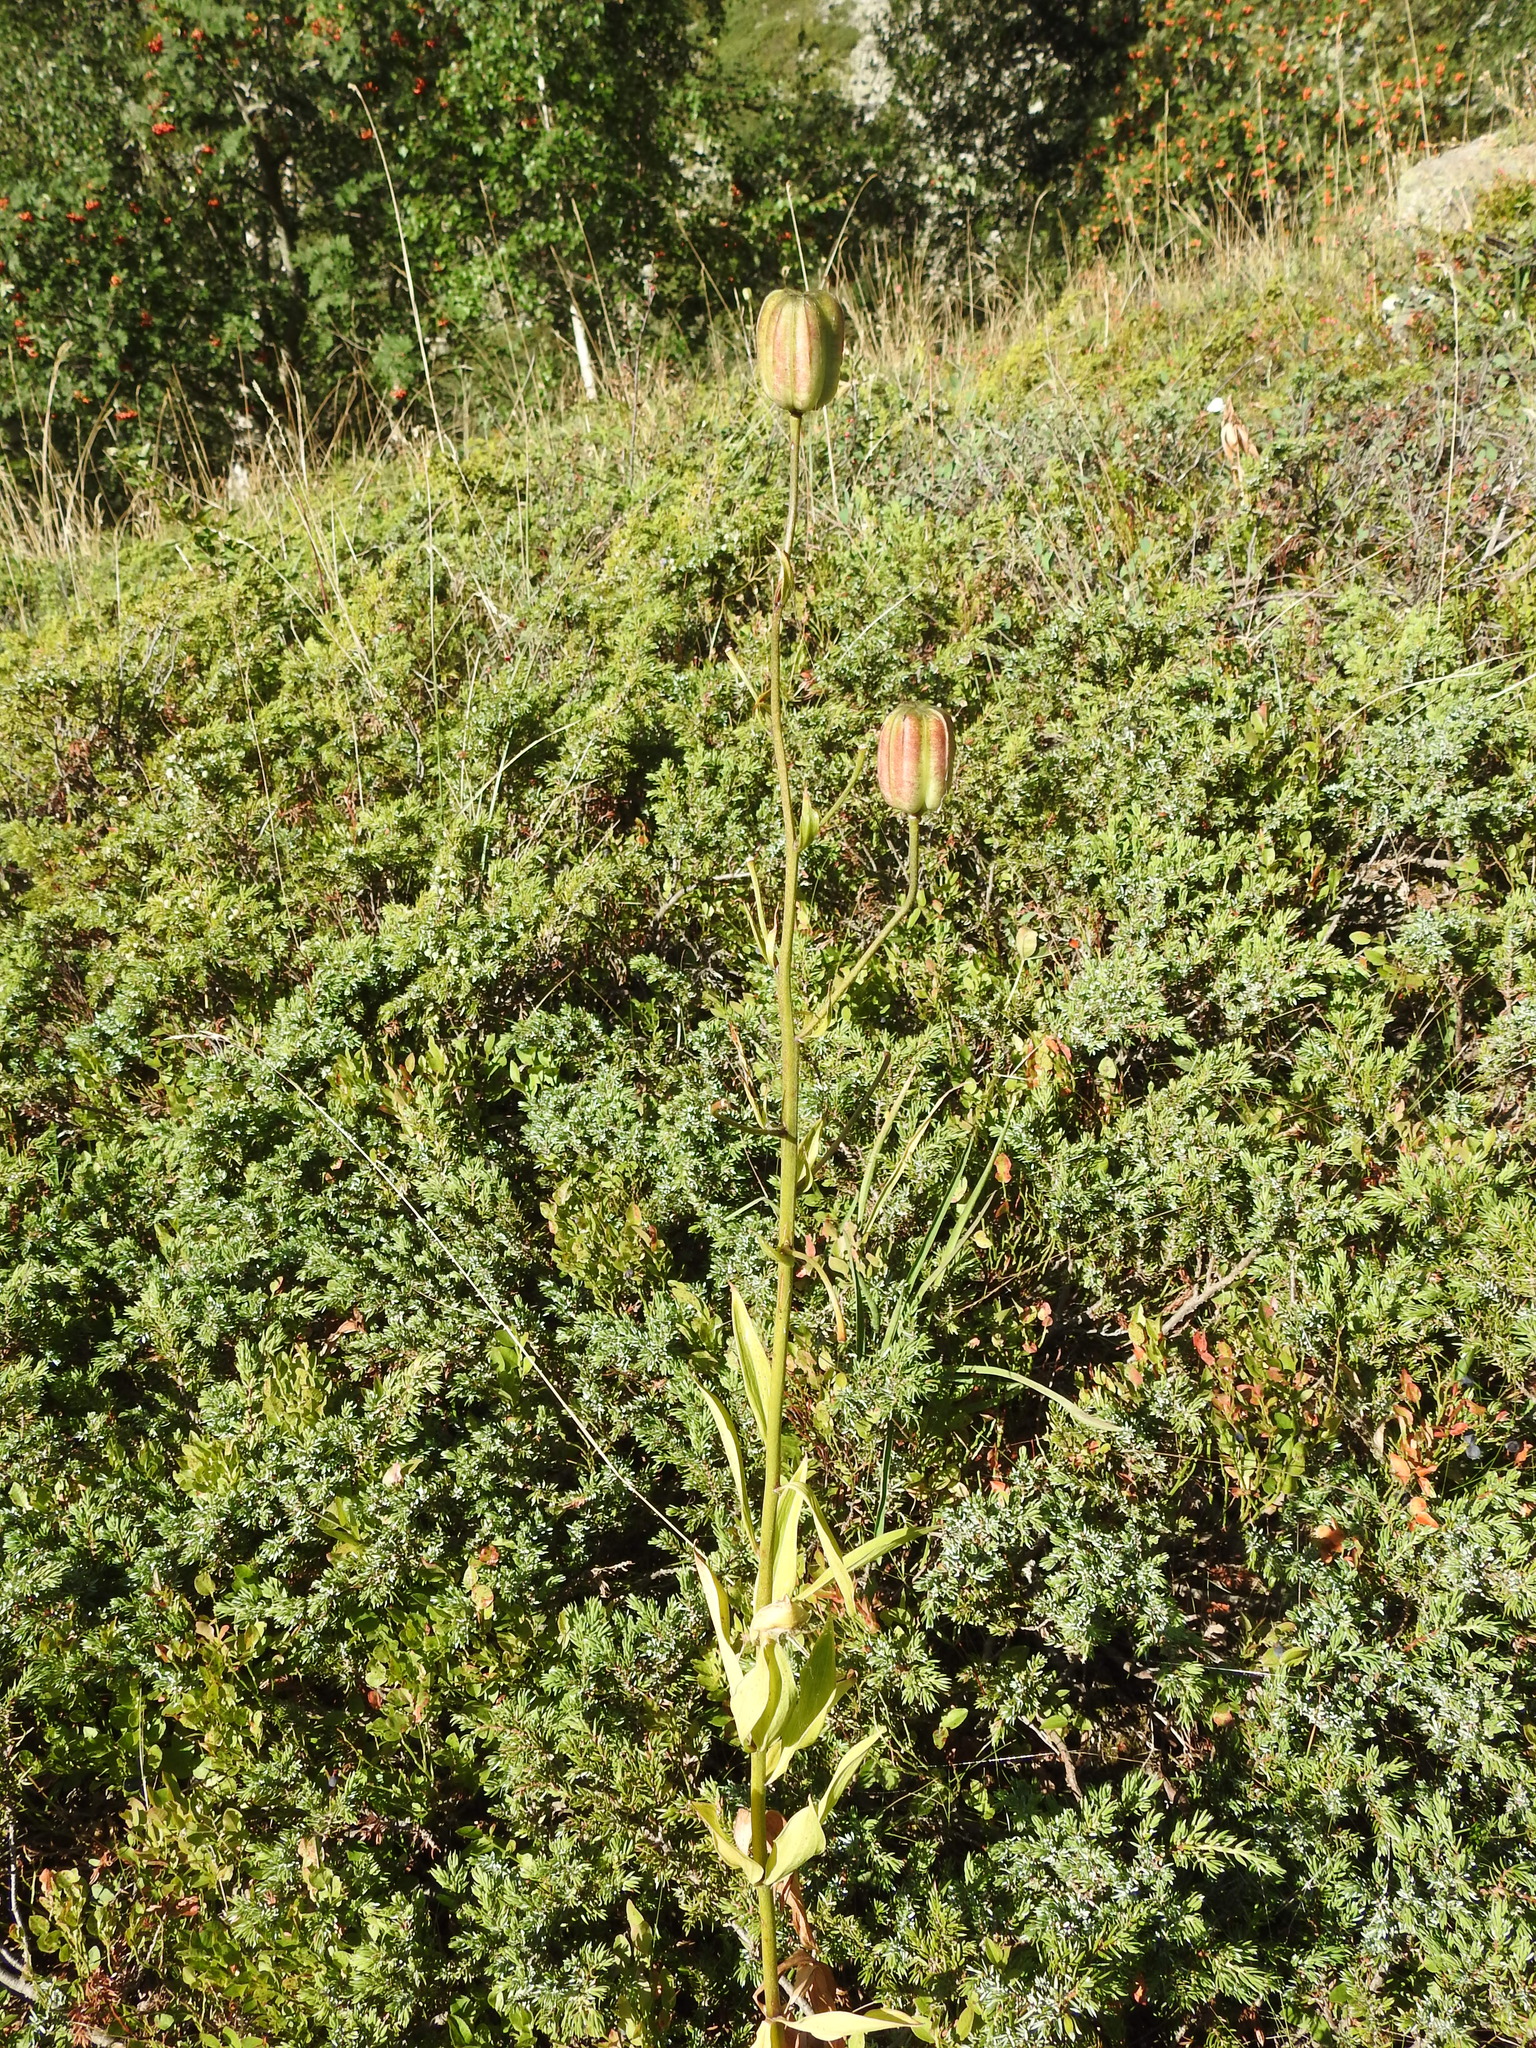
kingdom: Plantae
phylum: Tracheophyta
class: Liliopsida
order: Liliales
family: Liliaceae
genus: Lilium
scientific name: Lilium martagon
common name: Martagon lily
